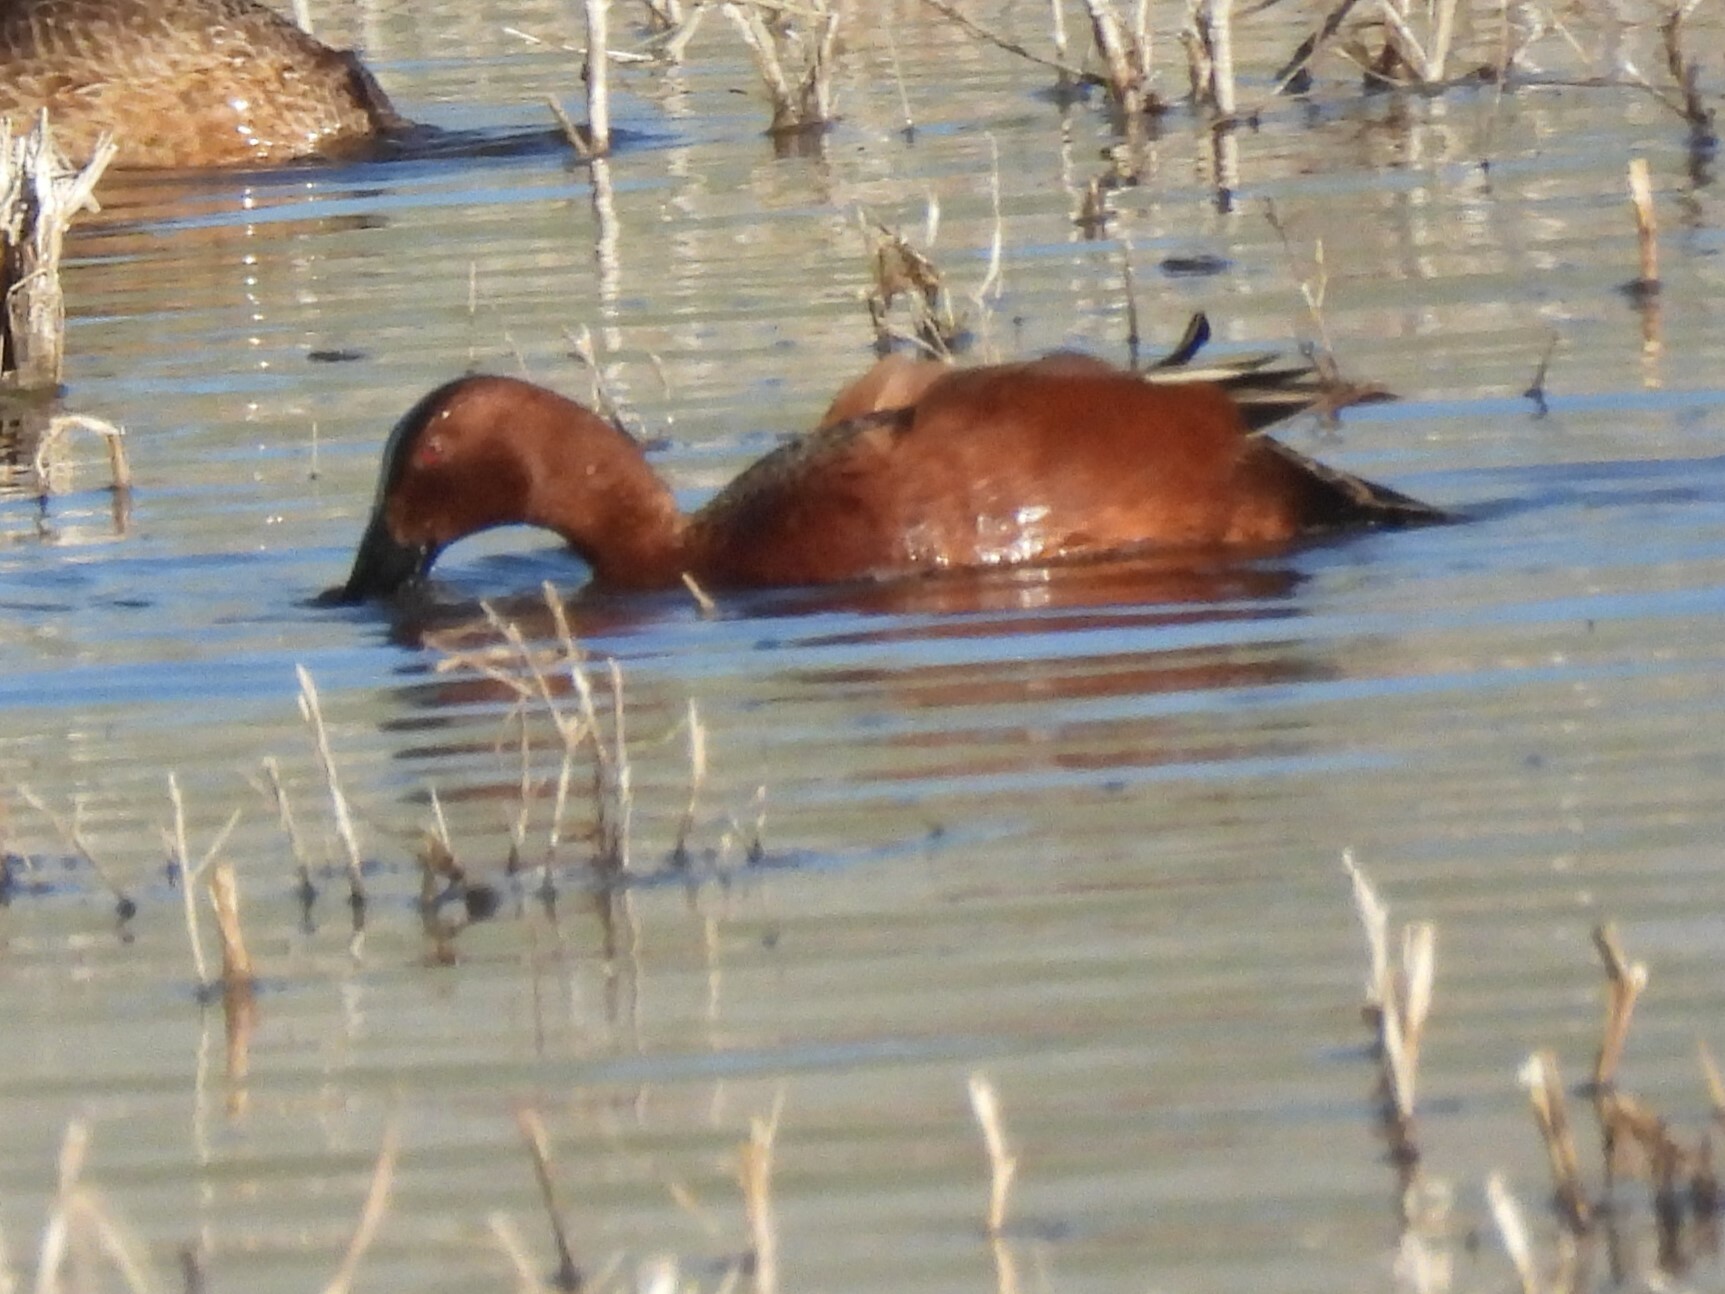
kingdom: Animalia
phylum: Chordata
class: Aves
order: Anseriformes
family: Anatidae
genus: Spatula
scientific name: Spatula cyanoptera
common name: Cinnamon teal
